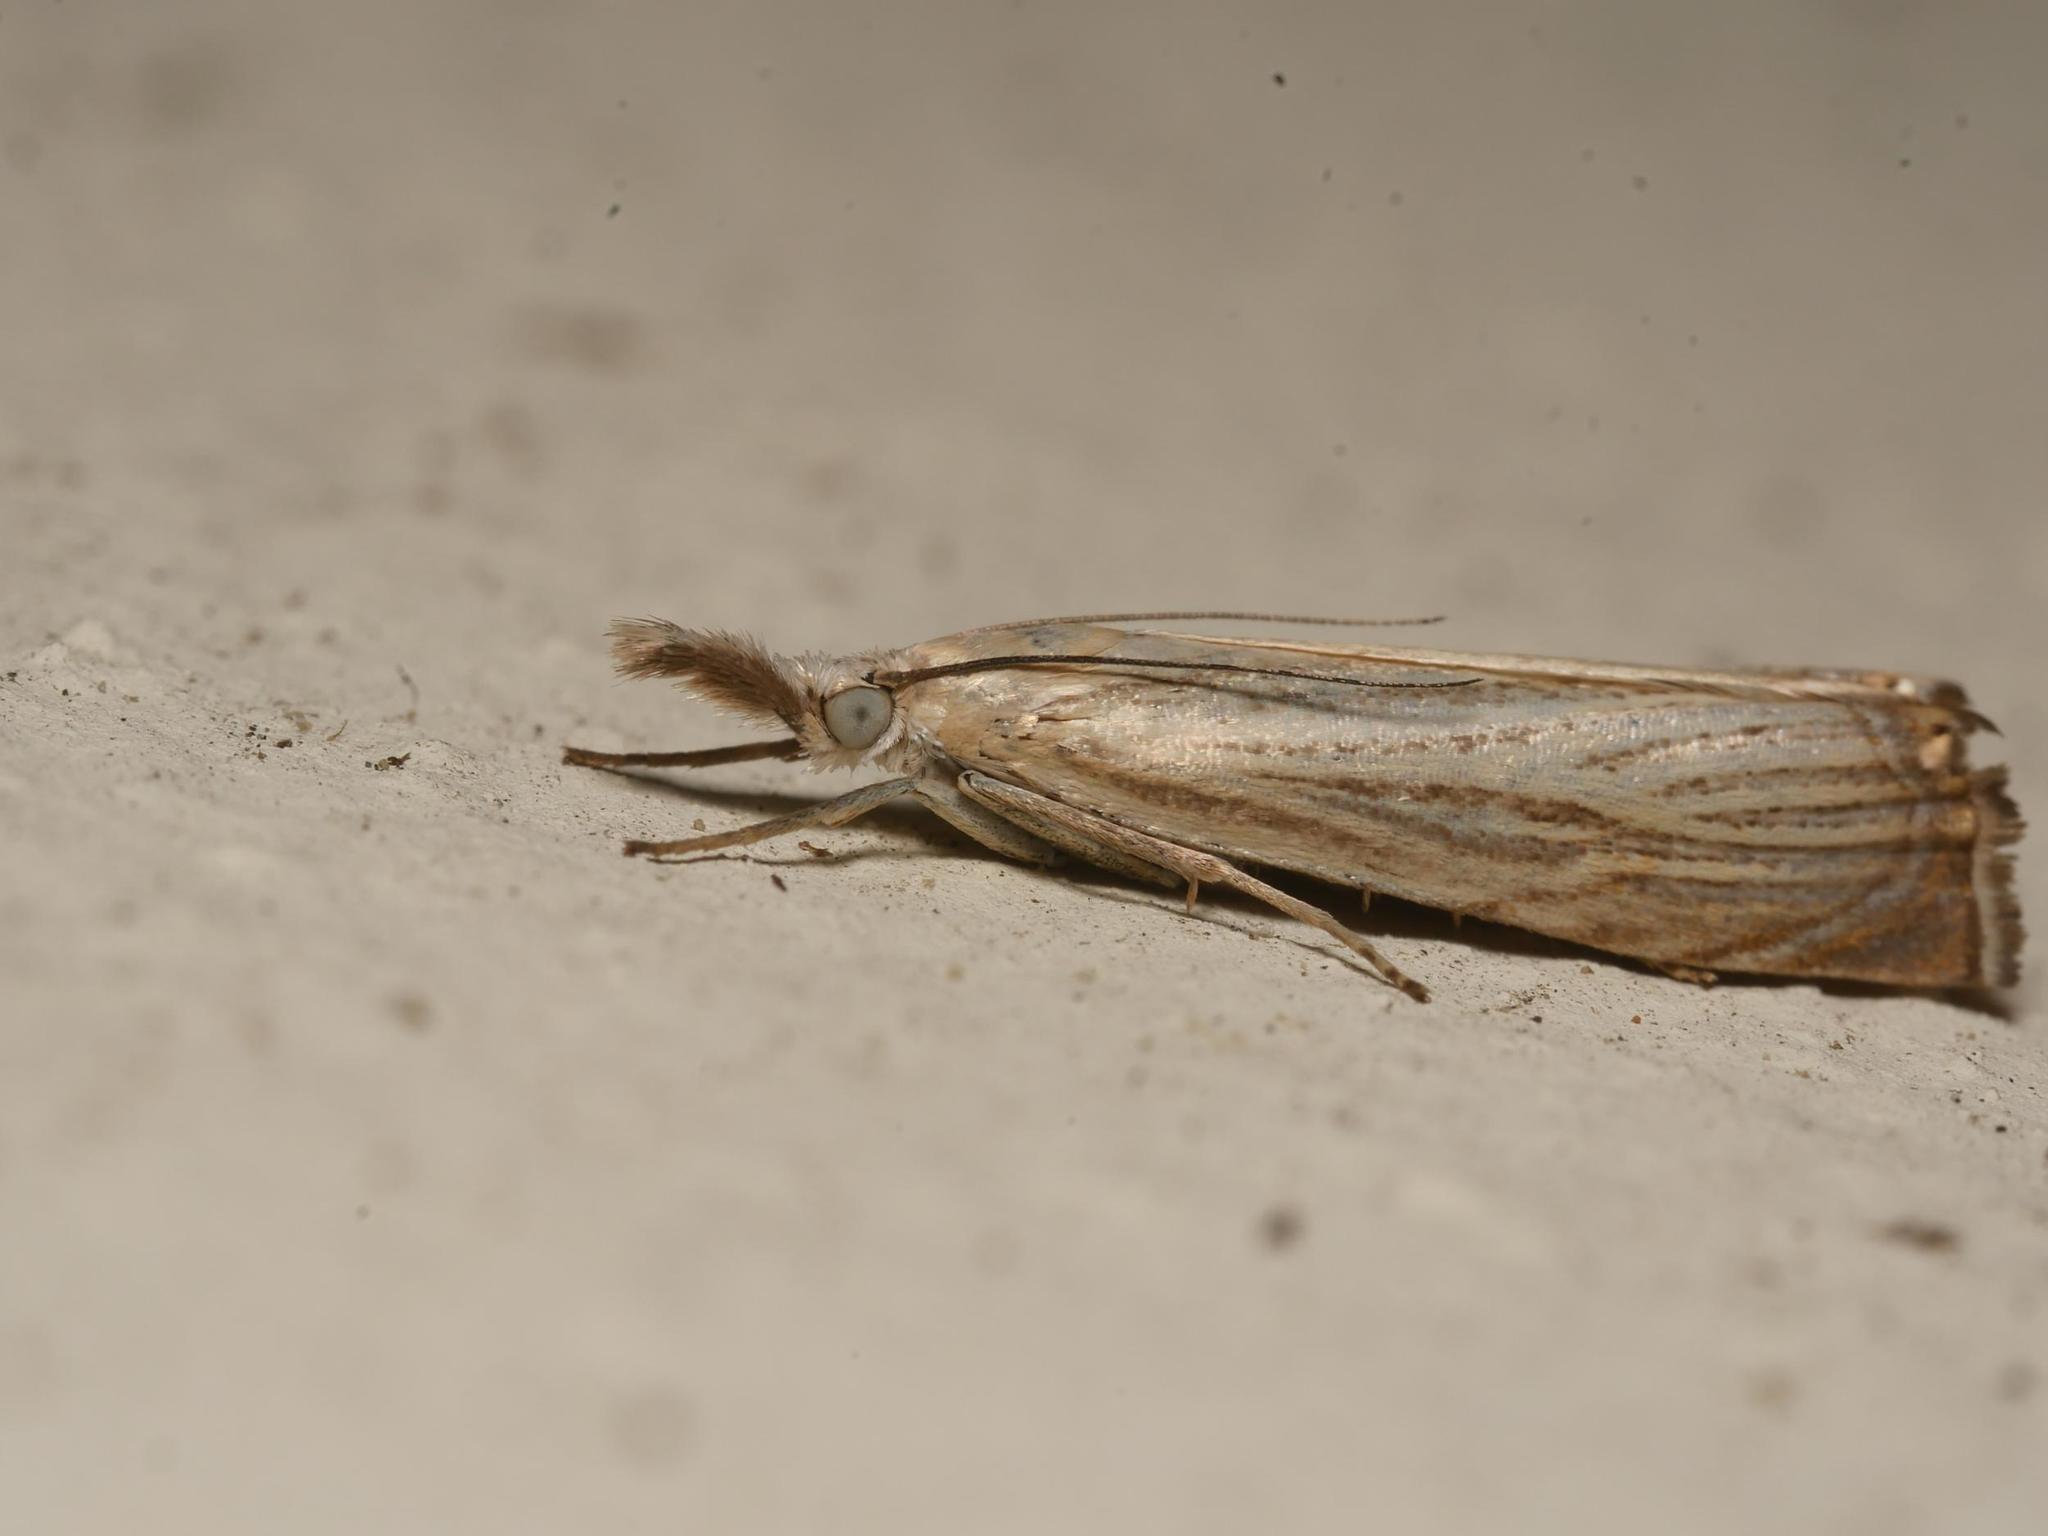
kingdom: Animalia
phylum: Arthropoda
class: Insecta
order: Lepidoptera
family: Crambidae
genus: Chrysoteuchia
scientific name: Chrysoteuchia culmella
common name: Garden grass-veneer
